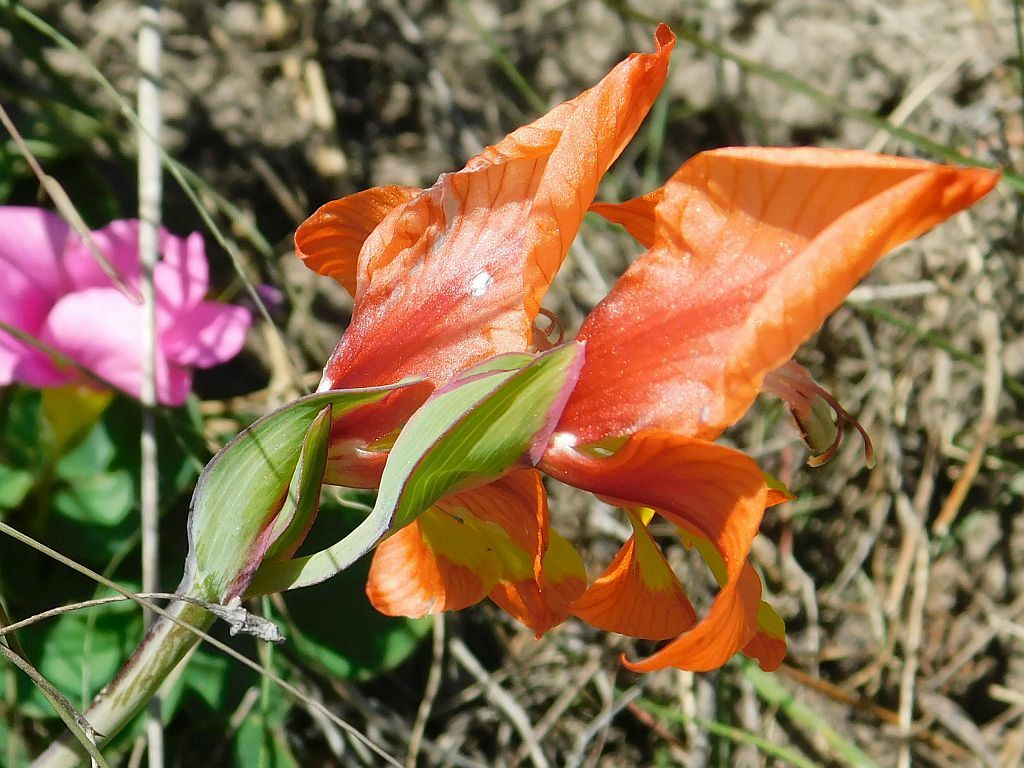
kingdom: Plantae
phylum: Tracheophyta
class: Liliopsida
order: Asparagales
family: Iridaceae
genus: Gladiolus
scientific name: Gladiolus alatus
